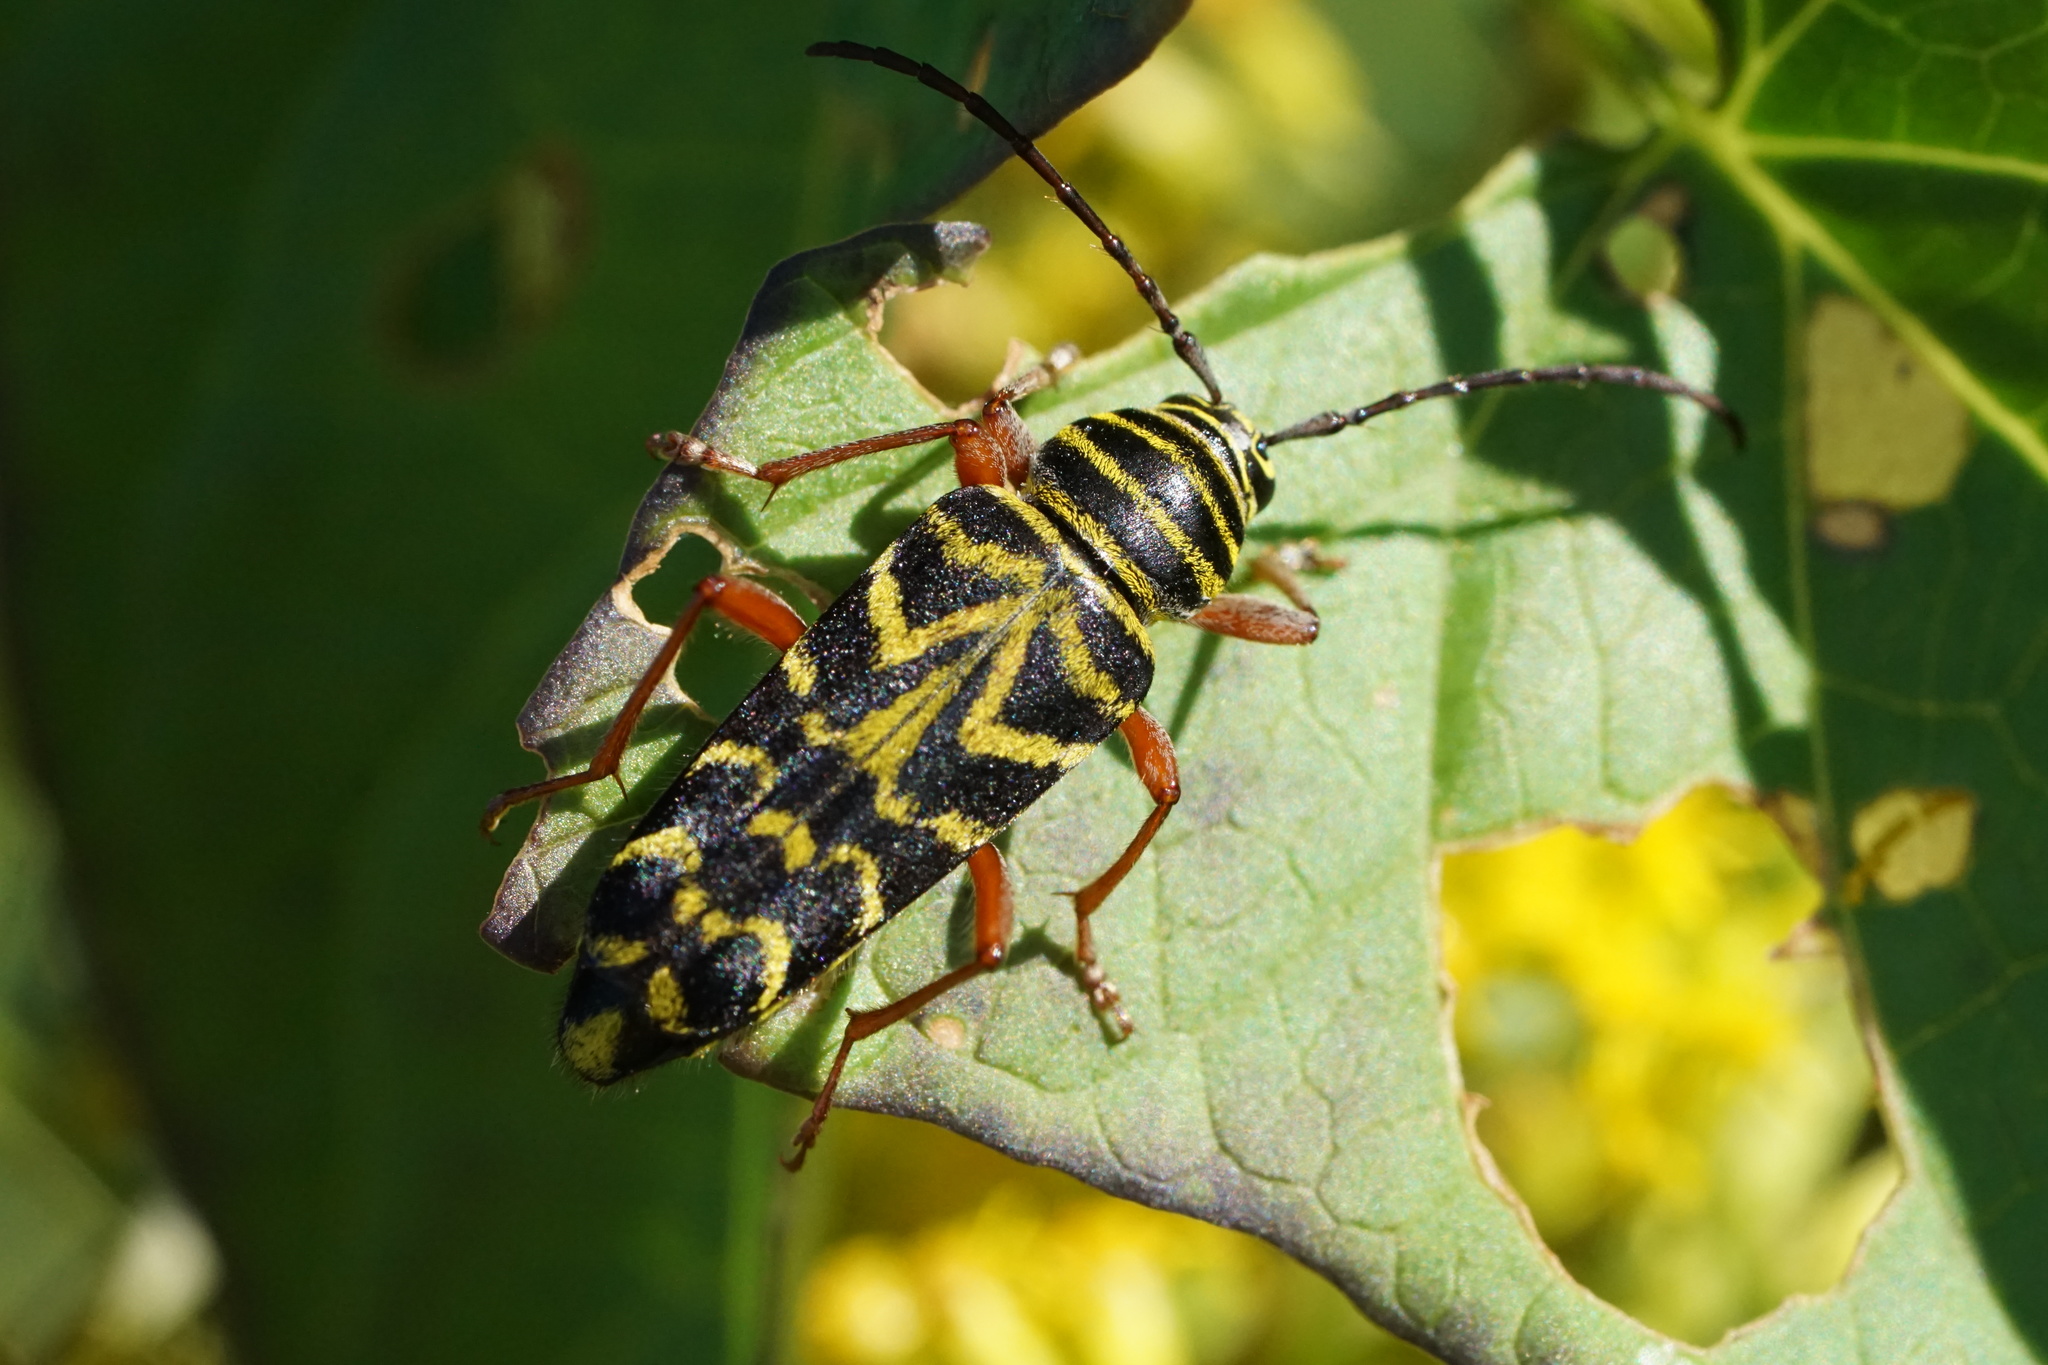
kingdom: Animalia
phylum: Arthropoda
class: Insecta
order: Coleoptera
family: Cerambycidae
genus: Megacyllene
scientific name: Megacyllene robiniae
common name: Locust borer
